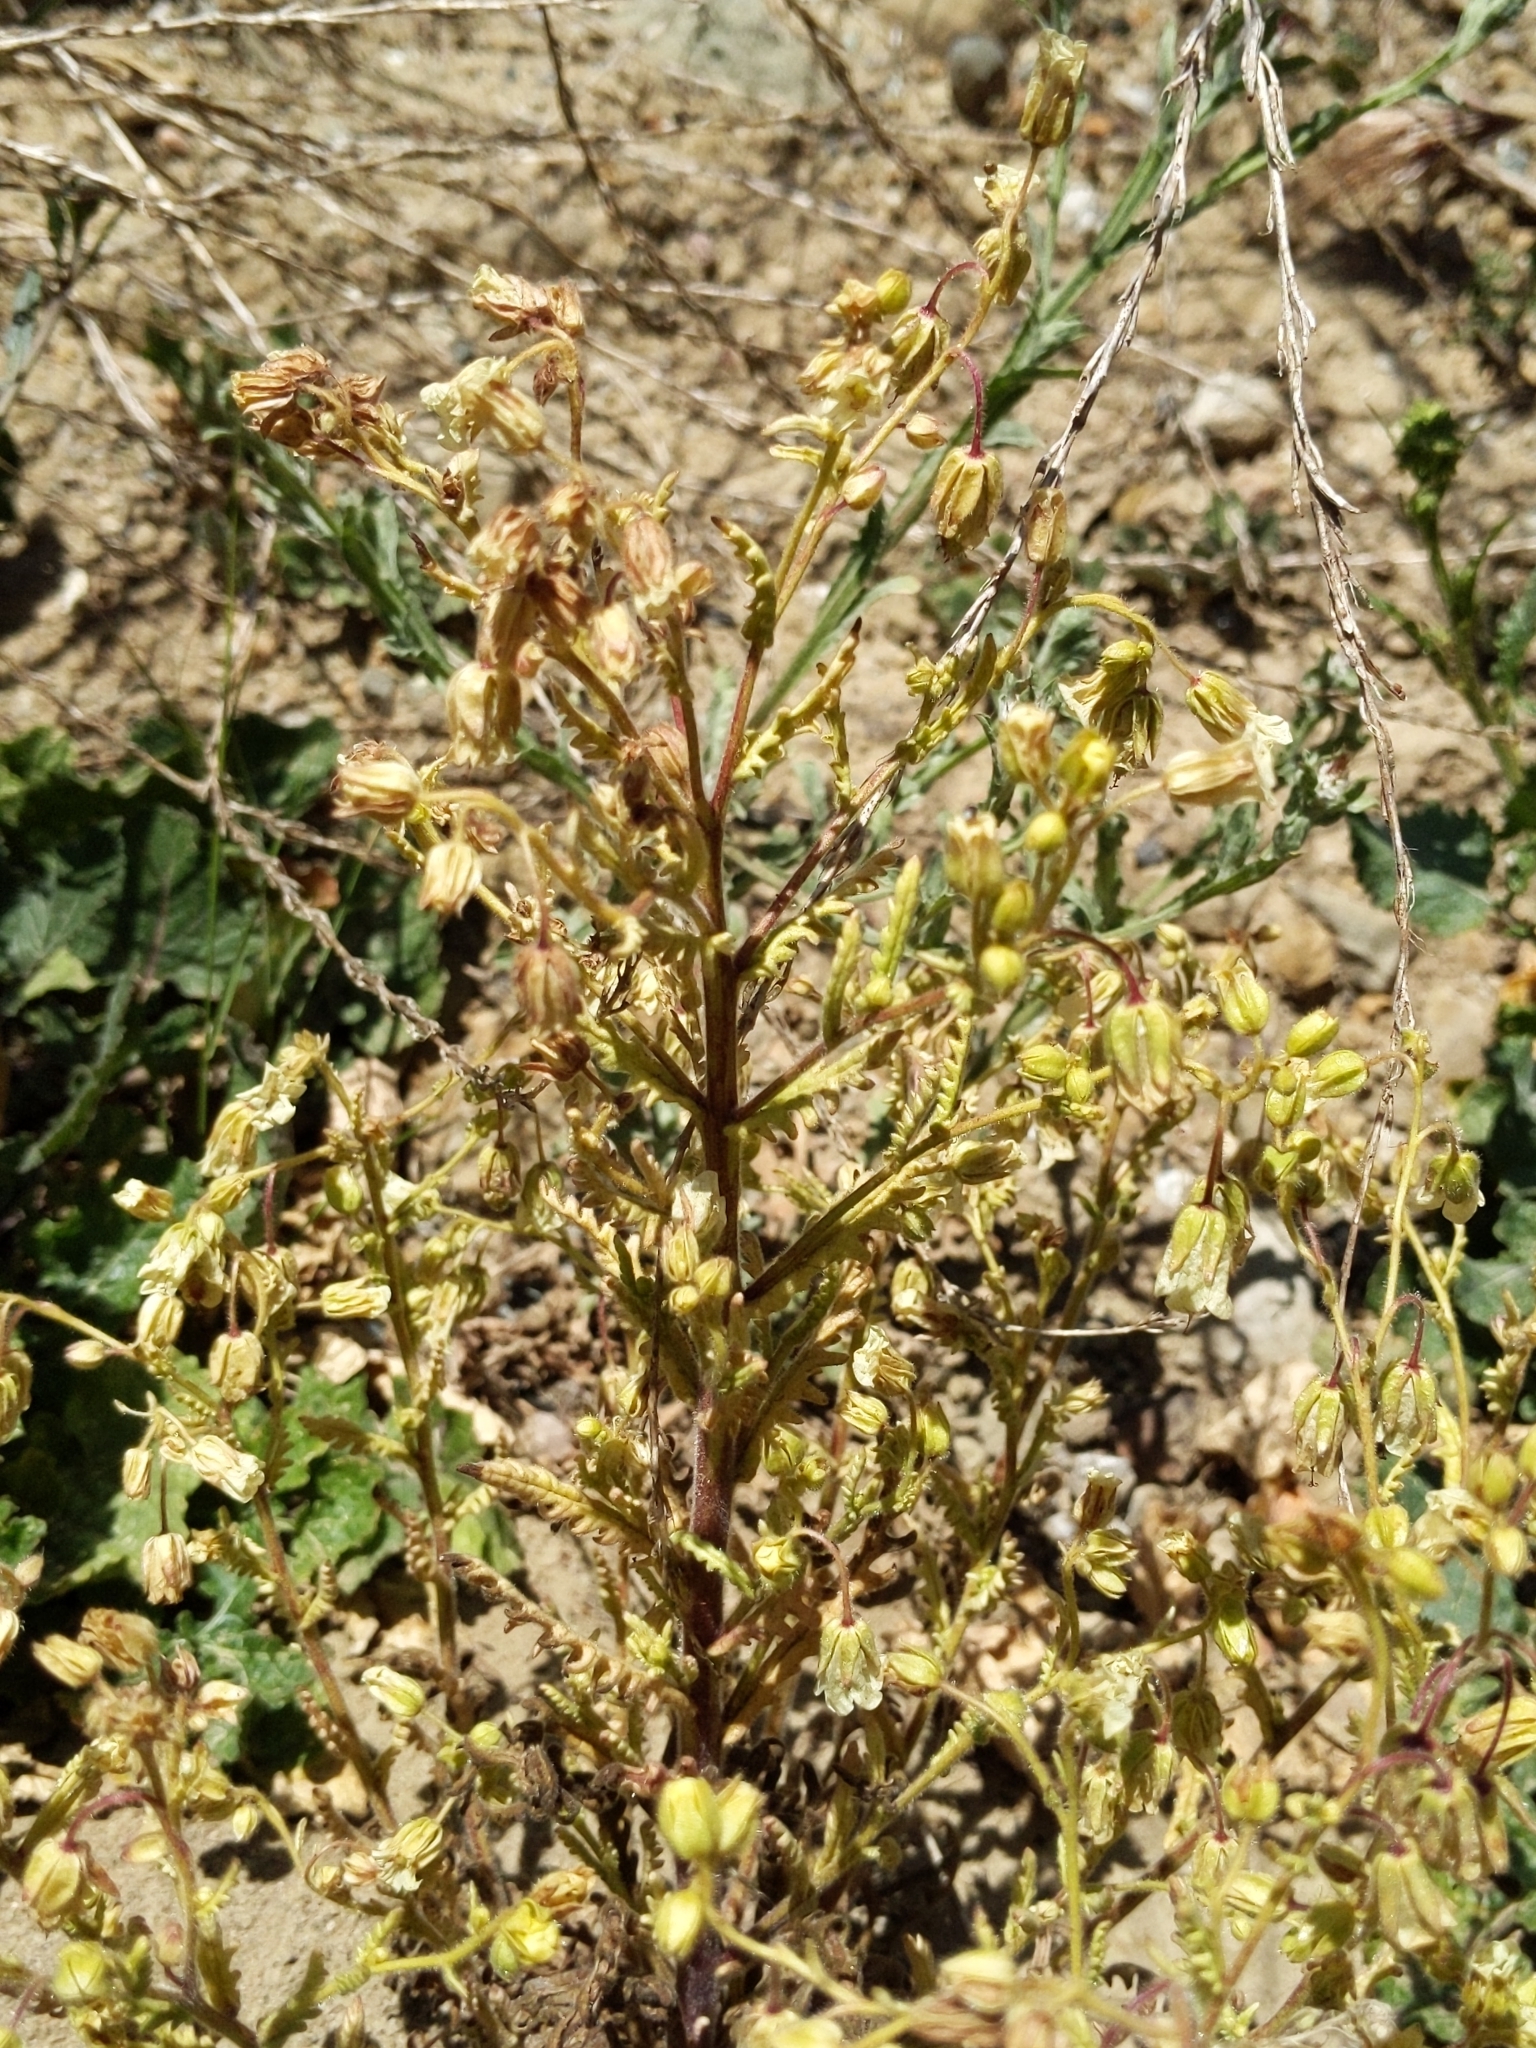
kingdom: Plantae
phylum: Tracheophyta
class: Magnoliopsida
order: Boraginales
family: Hydrophyllaceae
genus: Emmenanthe
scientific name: Emmenanthe penduliflora
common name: Whispering-bells
